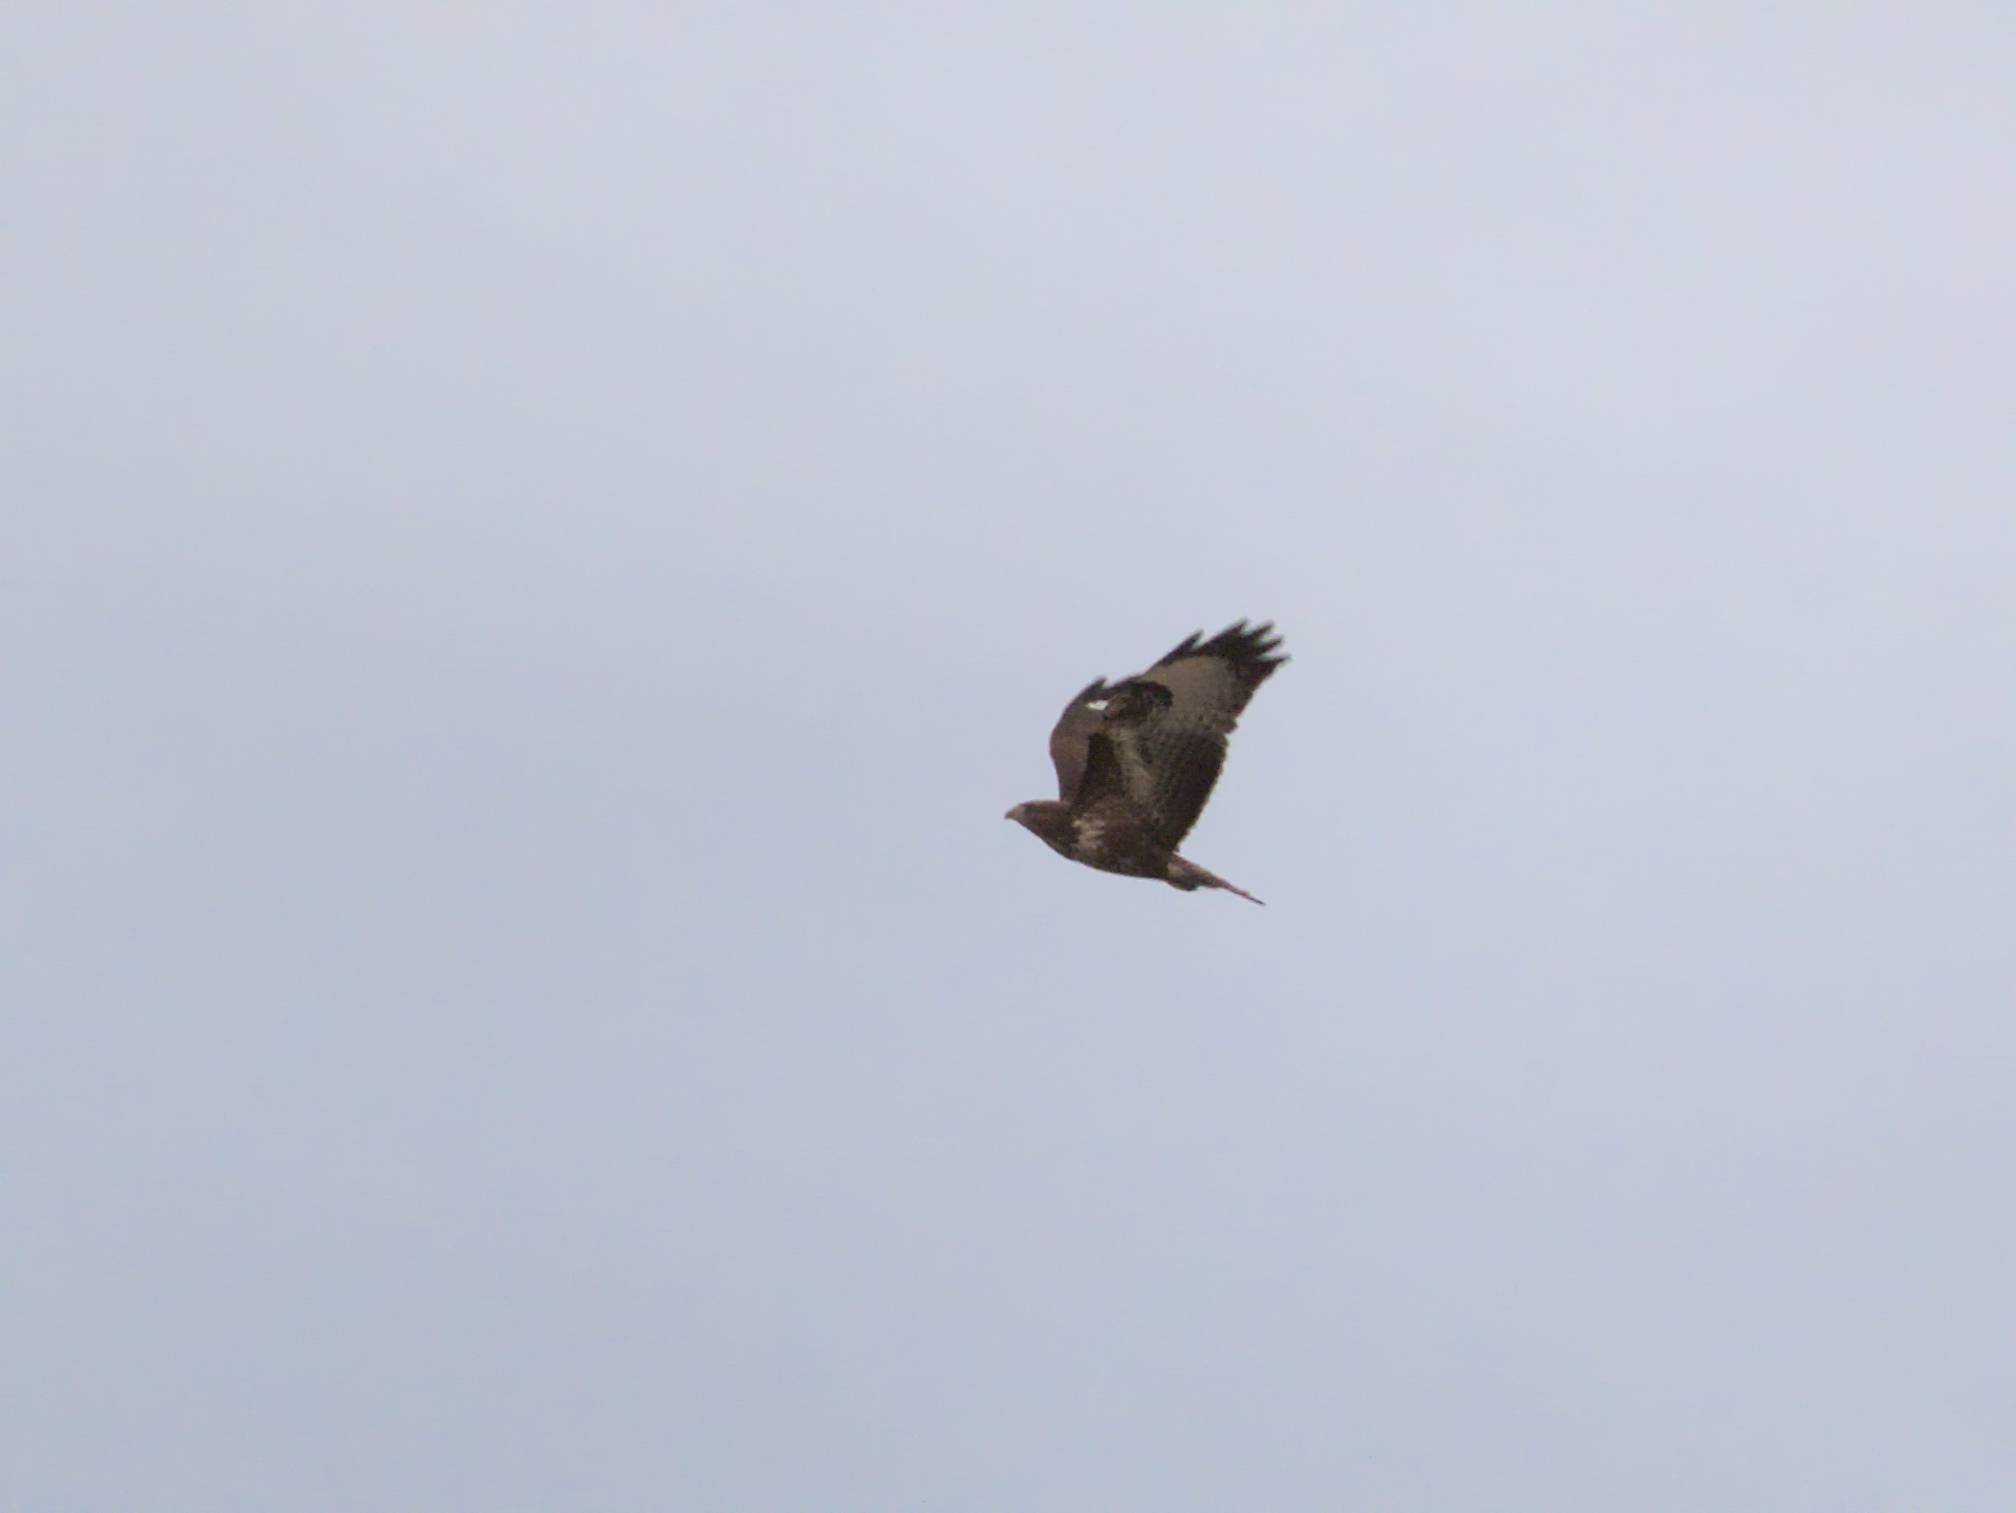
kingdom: Animalia
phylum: Chordata
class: Aves
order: Accipitriformes
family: Accipitridae
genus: Buteo
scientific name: Buteo buteo
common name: Common buzzard
